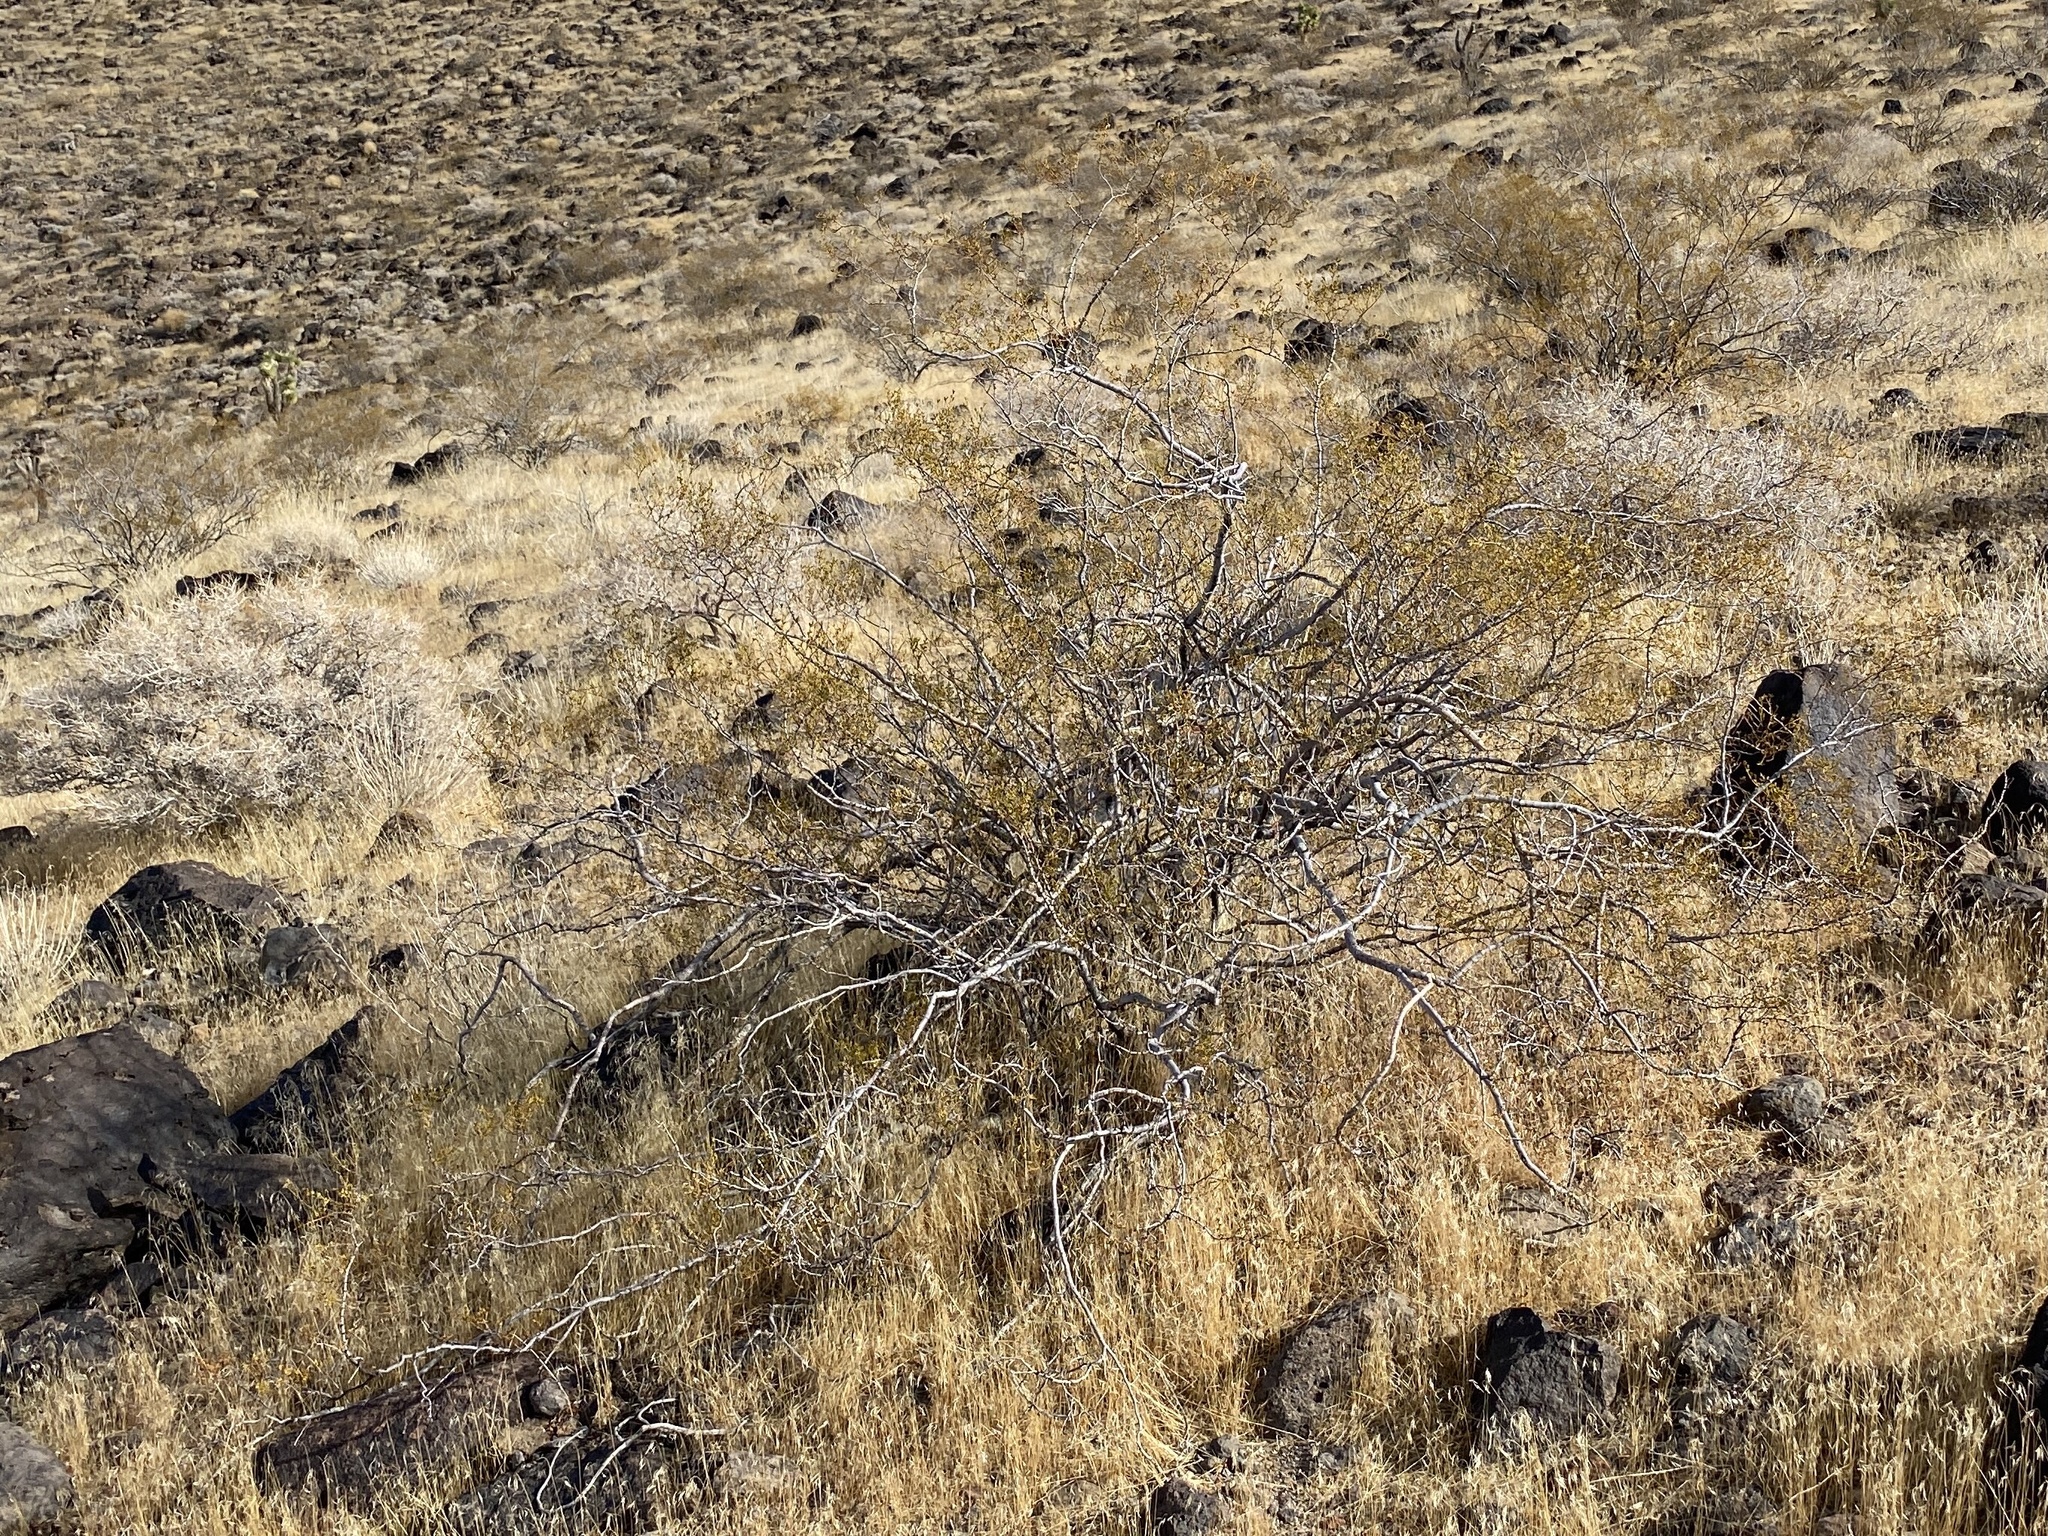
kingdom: Plantae
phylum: Tracheophyta
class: Magnoliopsida
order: Zygophyllales
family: Zygophyllaceae
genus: Larrea
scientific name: Larrea tridentata
